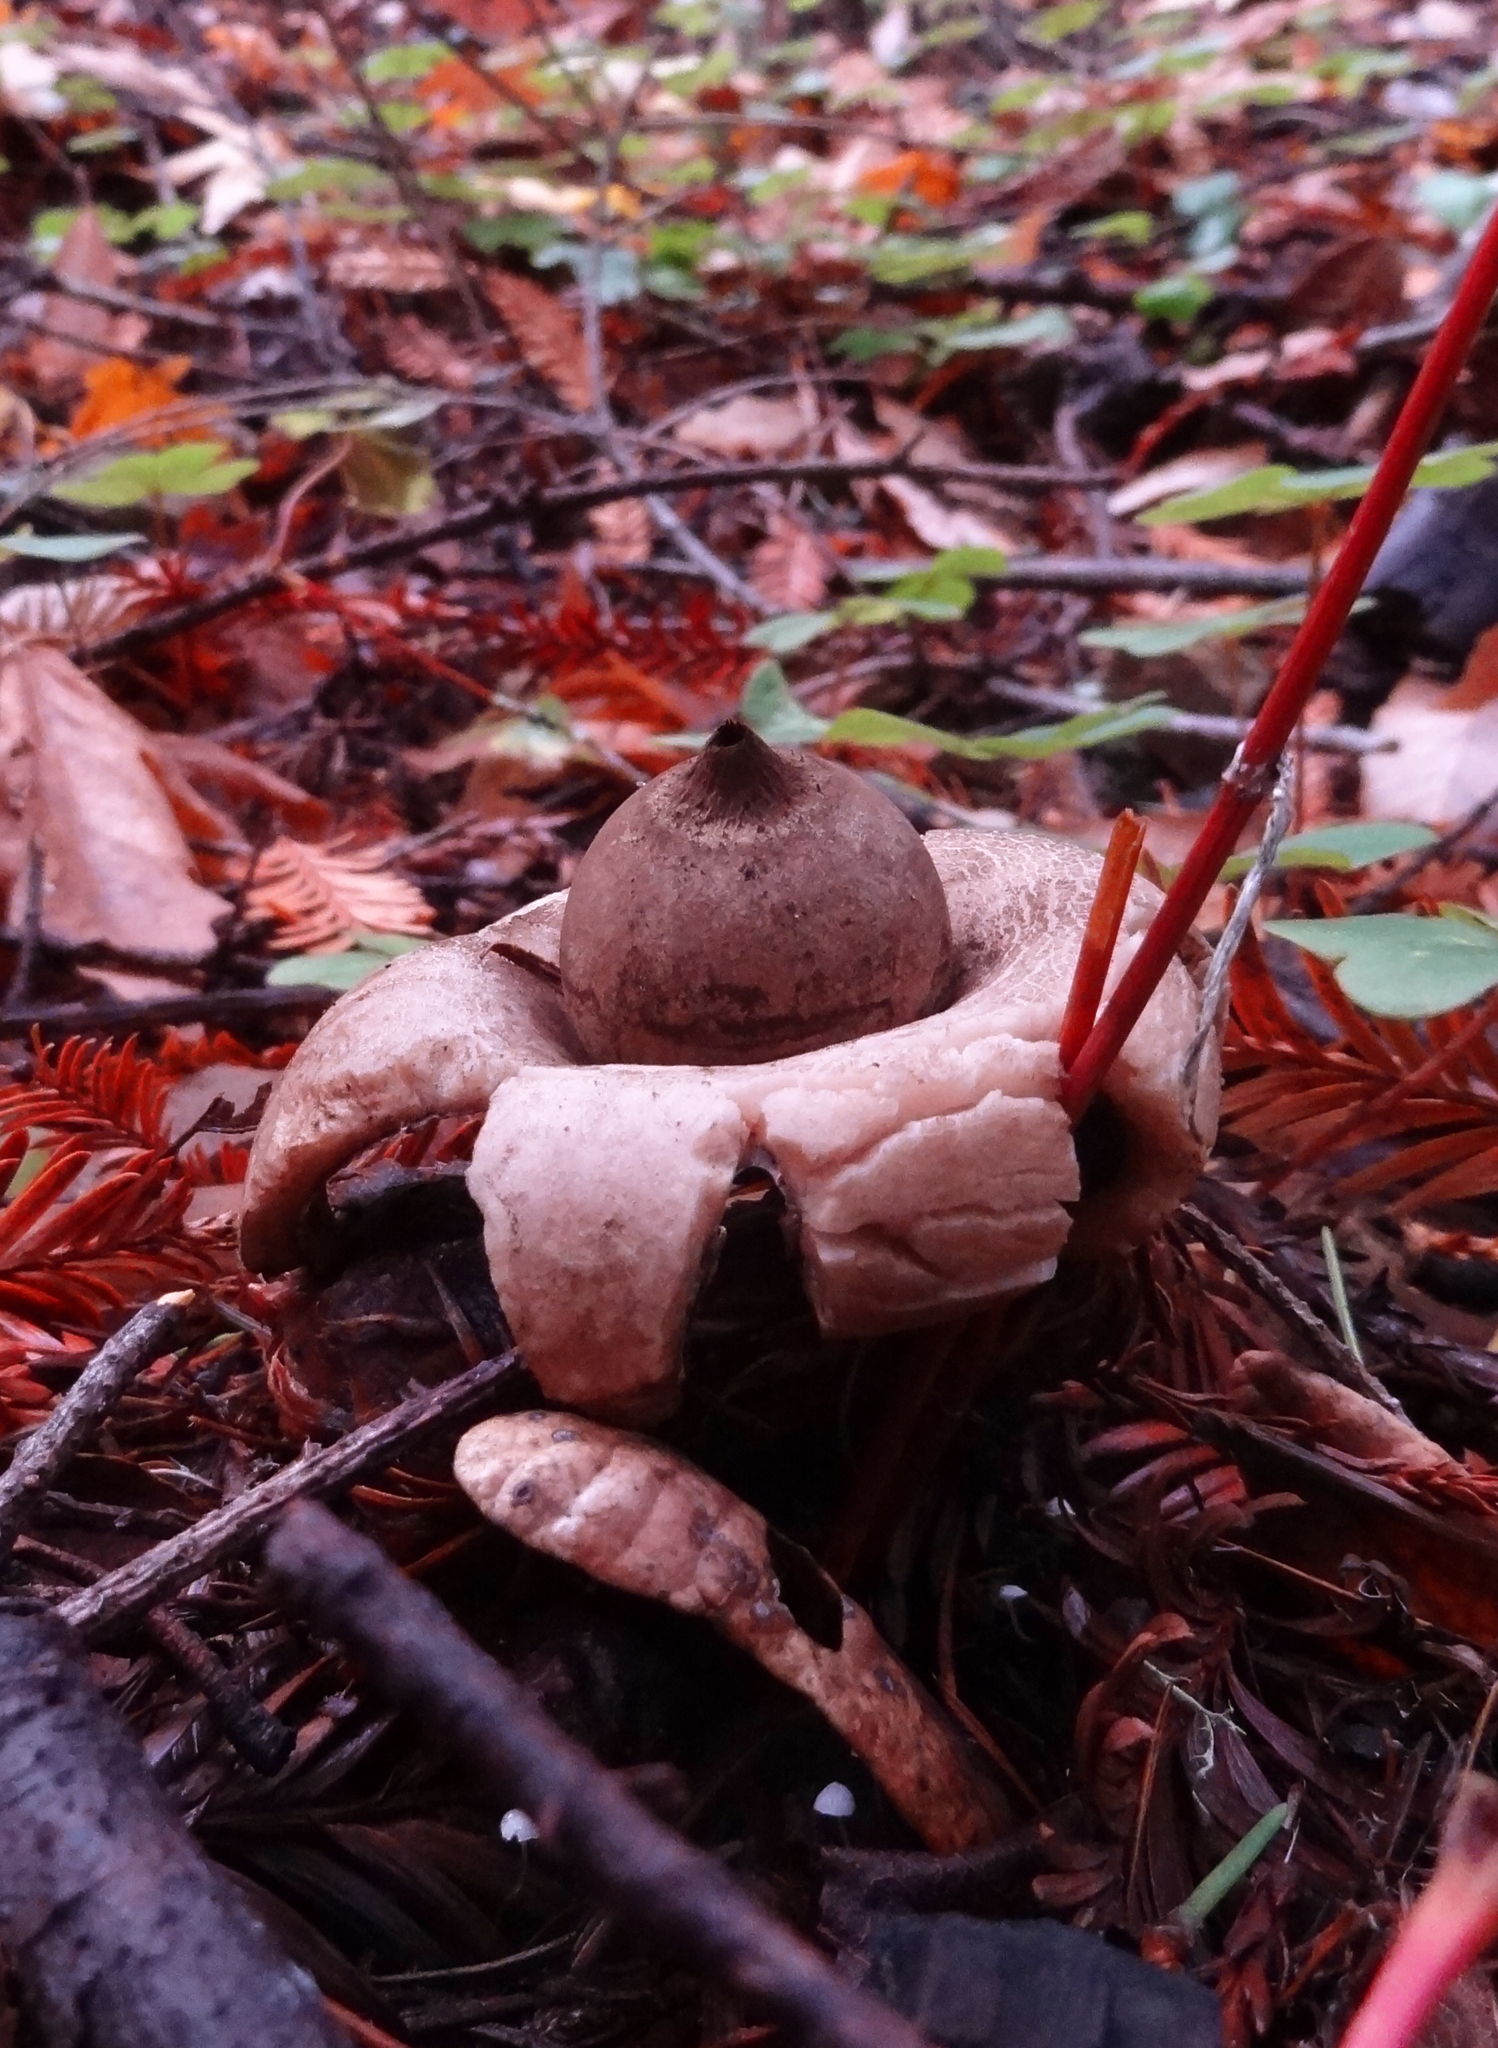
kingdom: Fungi
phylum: Basidiomycota
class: Agaricomycetes
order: Geastrales
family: Geastraceae
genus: Geastrum
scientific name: Geastrum saccatum
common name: Rounded earthstar
